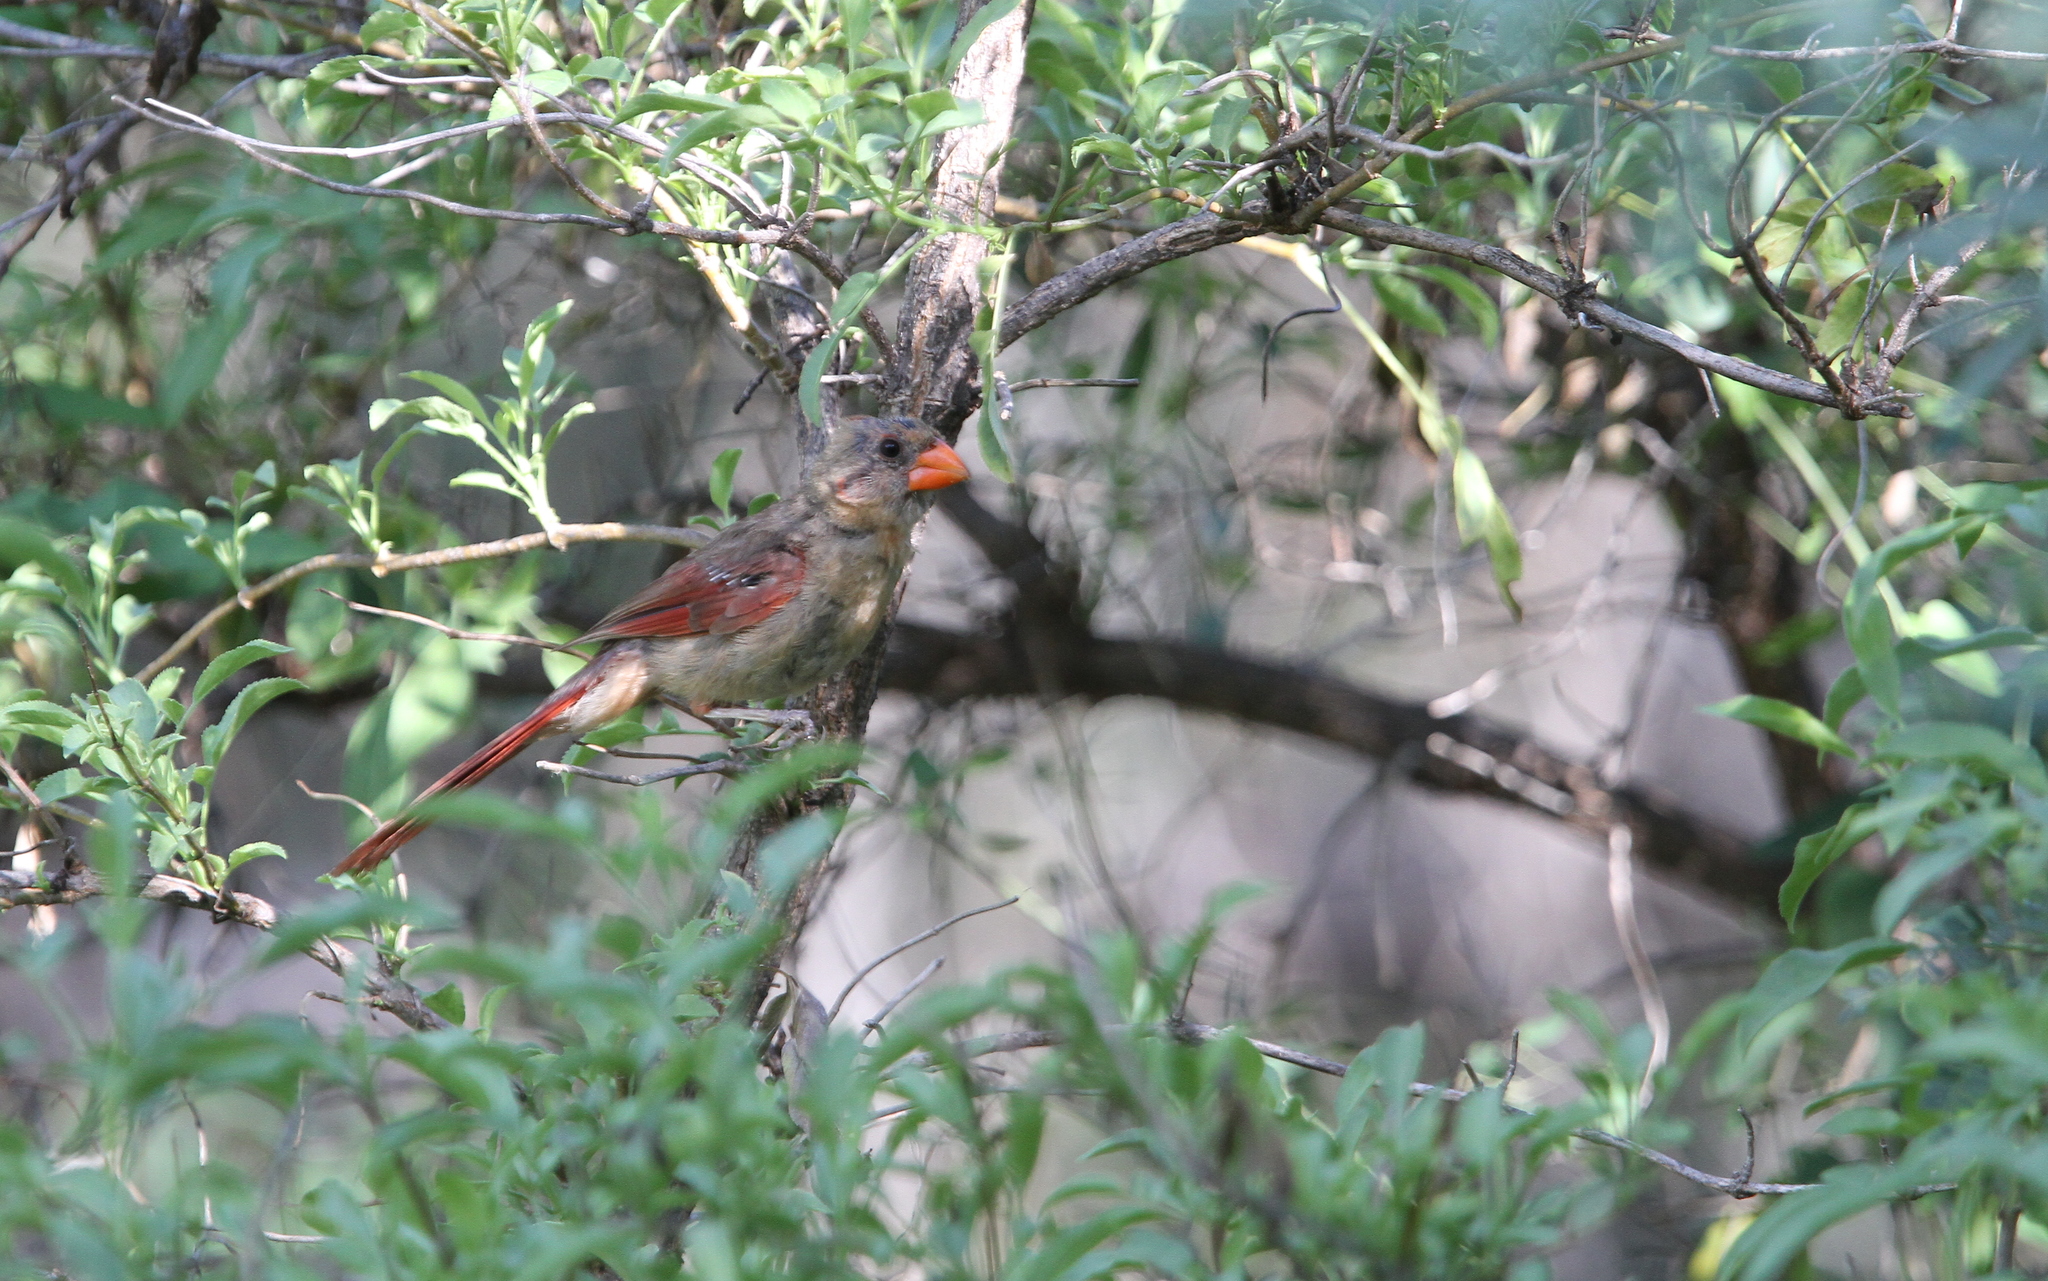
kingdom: Animalia
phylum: Chordata
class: Aves
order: Passeriformes
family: Cardinalidae
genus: Cardinalis
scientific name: Cardinalis cardinalis
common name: Northern cardinal
